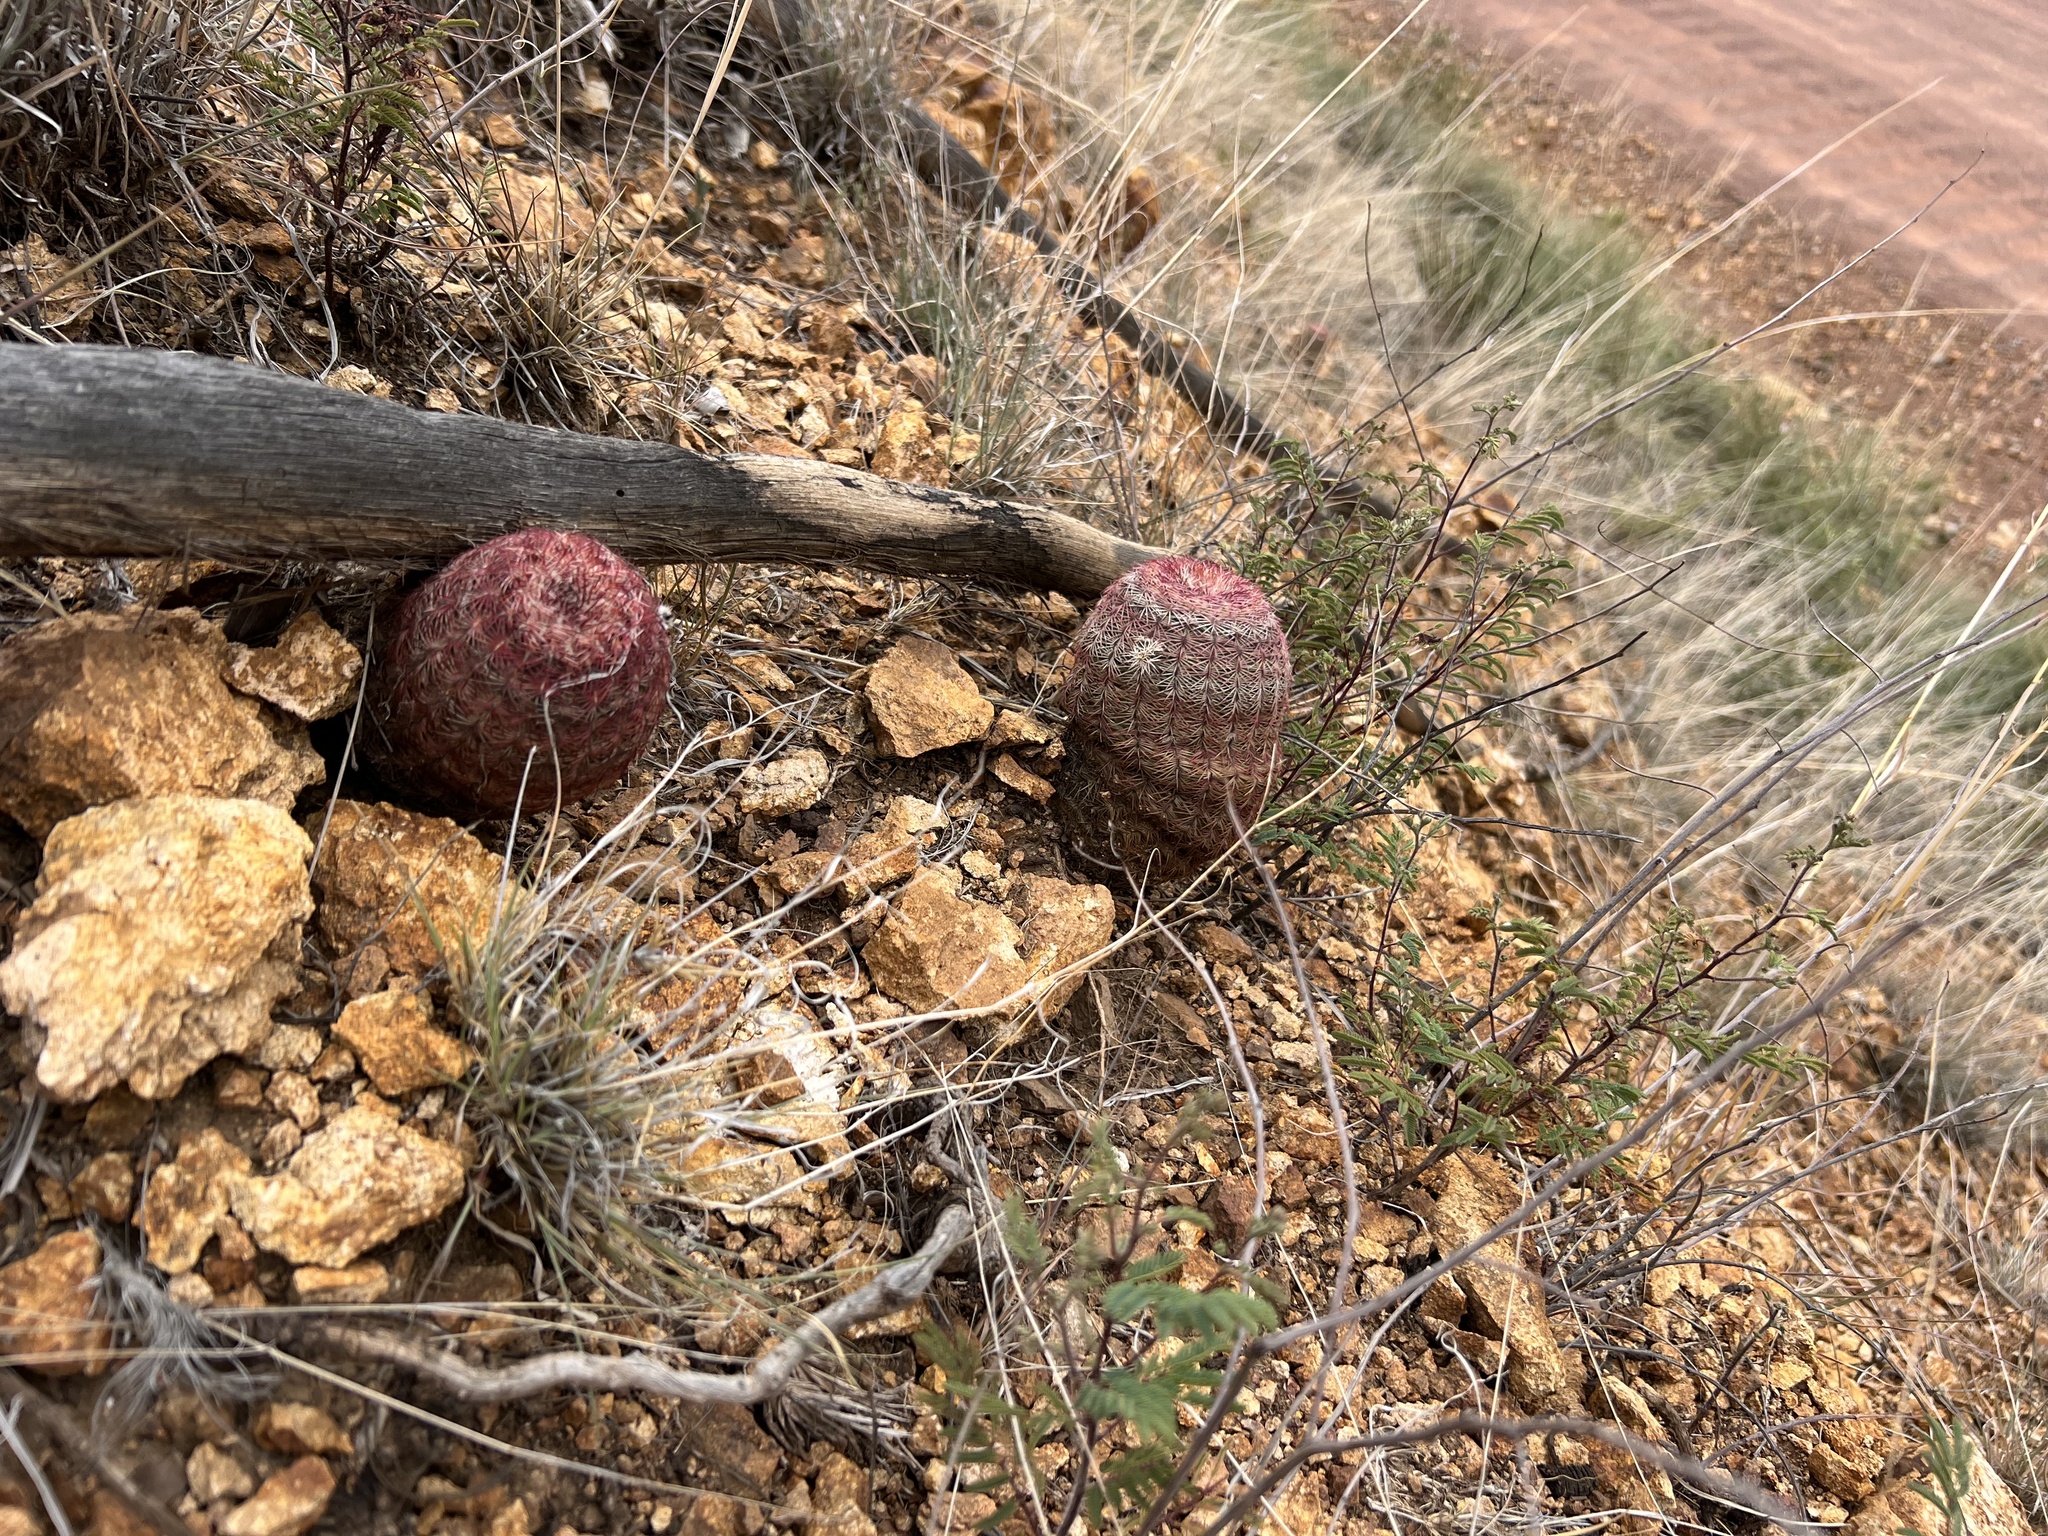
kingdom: Plantae
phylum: Tracheophyta
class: Magnoliopsida
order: Caryophyllales
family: Cactaceae
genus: Echinocereus
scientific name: Echinocereus rigidissimus
